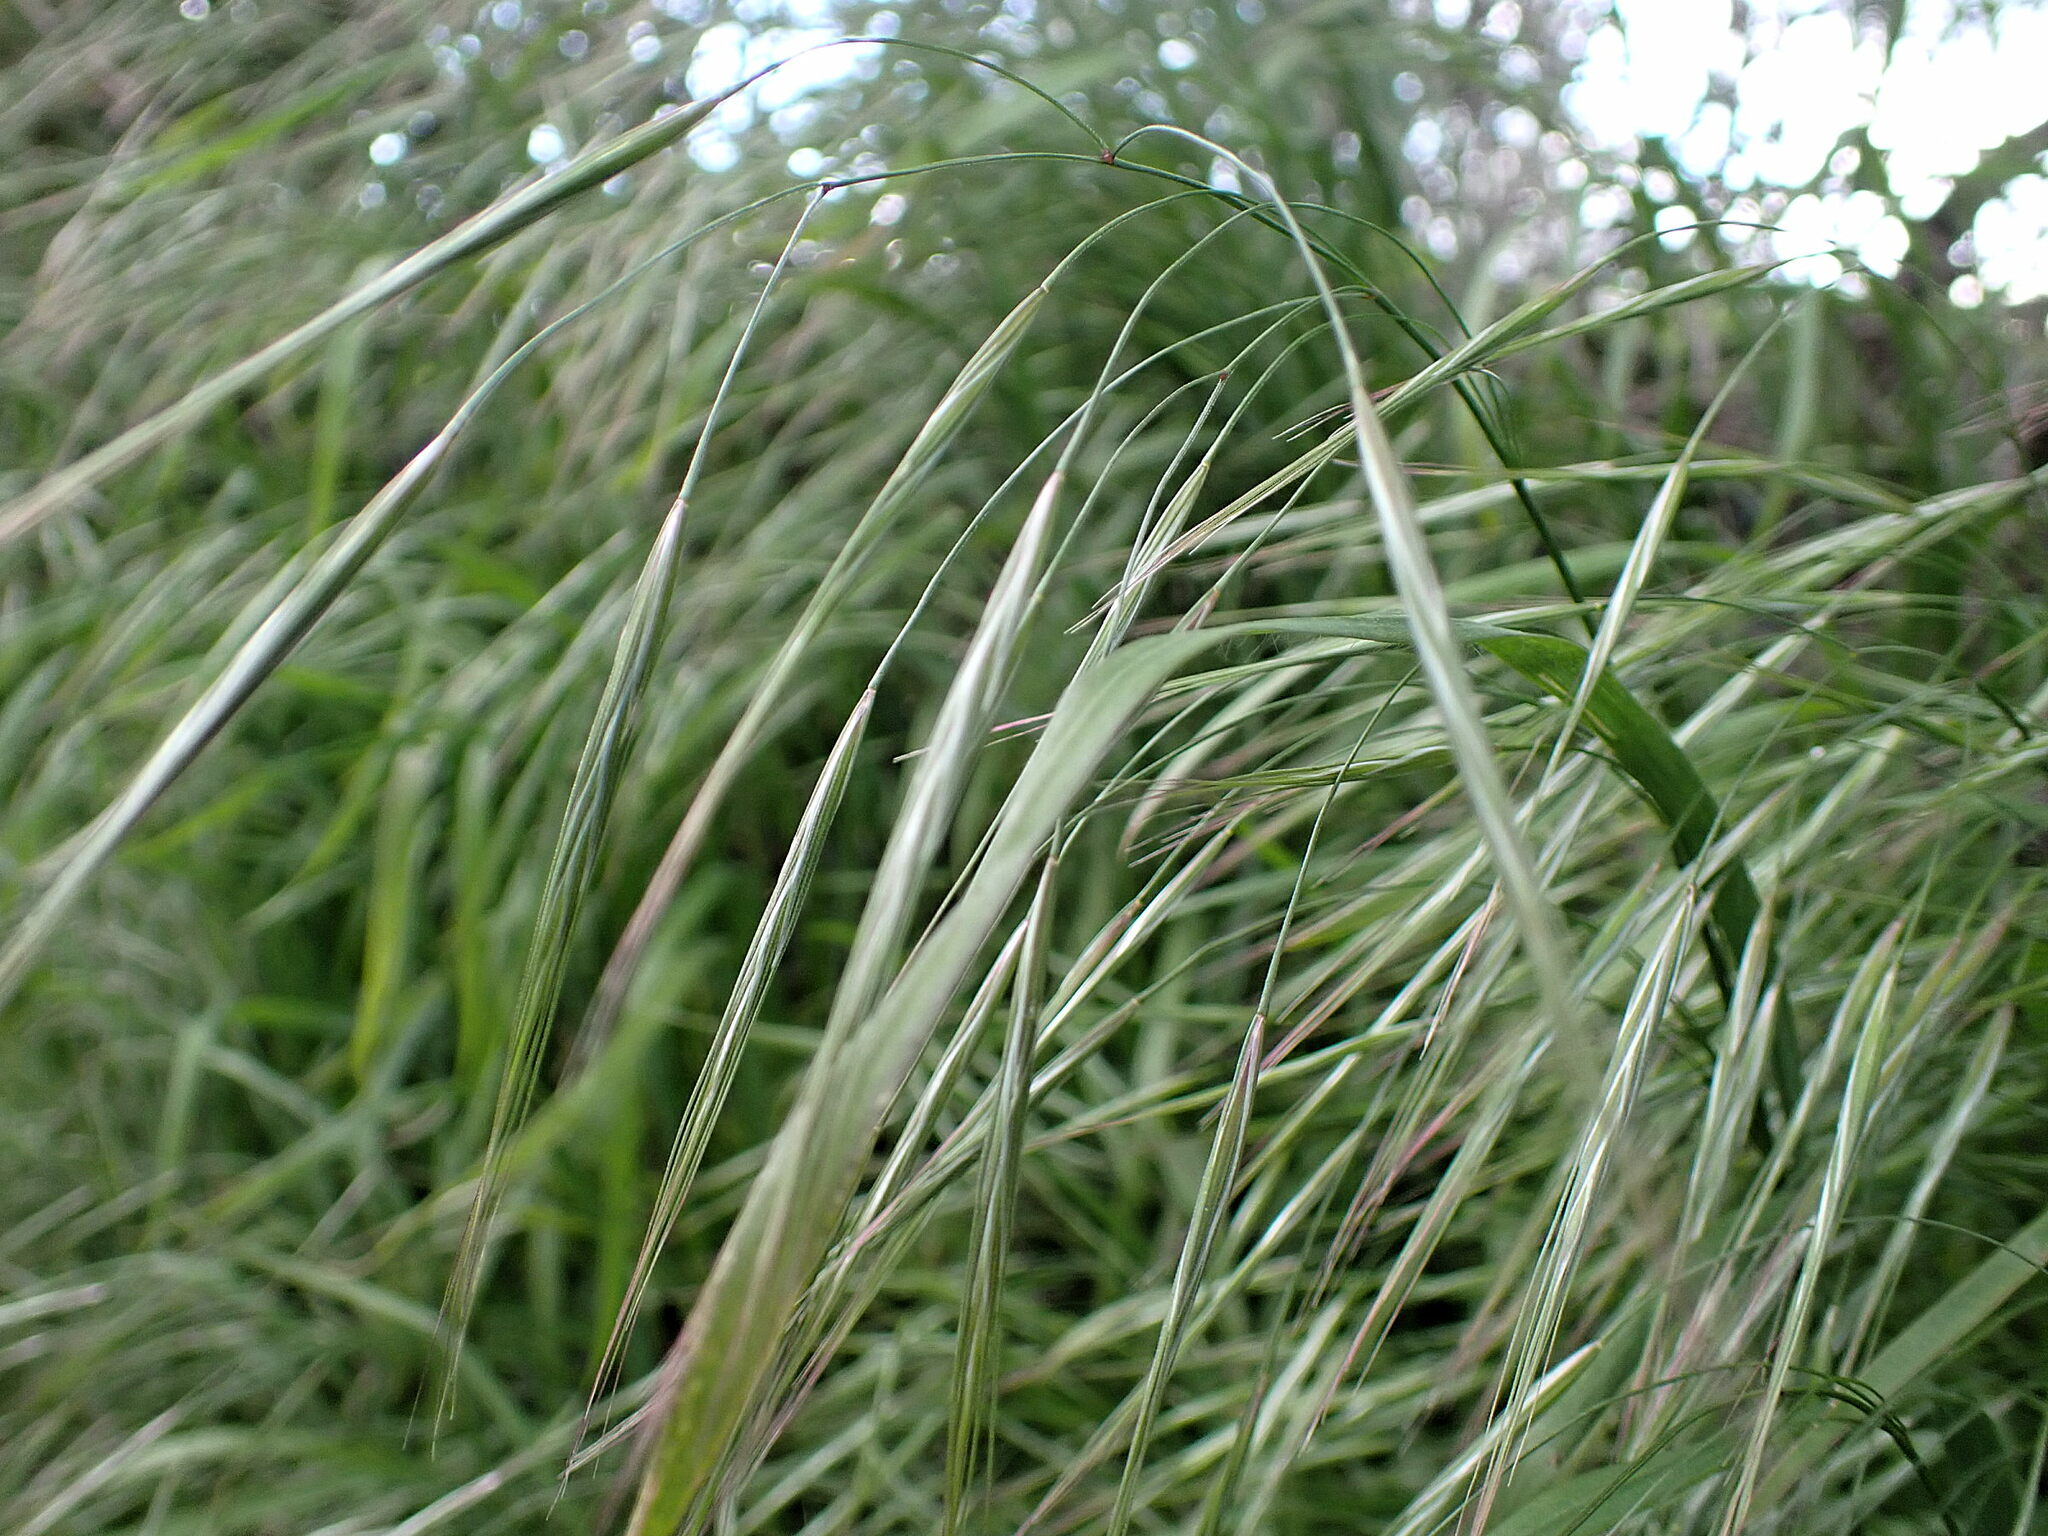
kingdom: Plantae
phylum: Tracheophyta
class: Liliopsida
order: Poales
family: Poaceae
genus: Bromus
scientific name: Bromus sterilis
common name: Poverty brome
